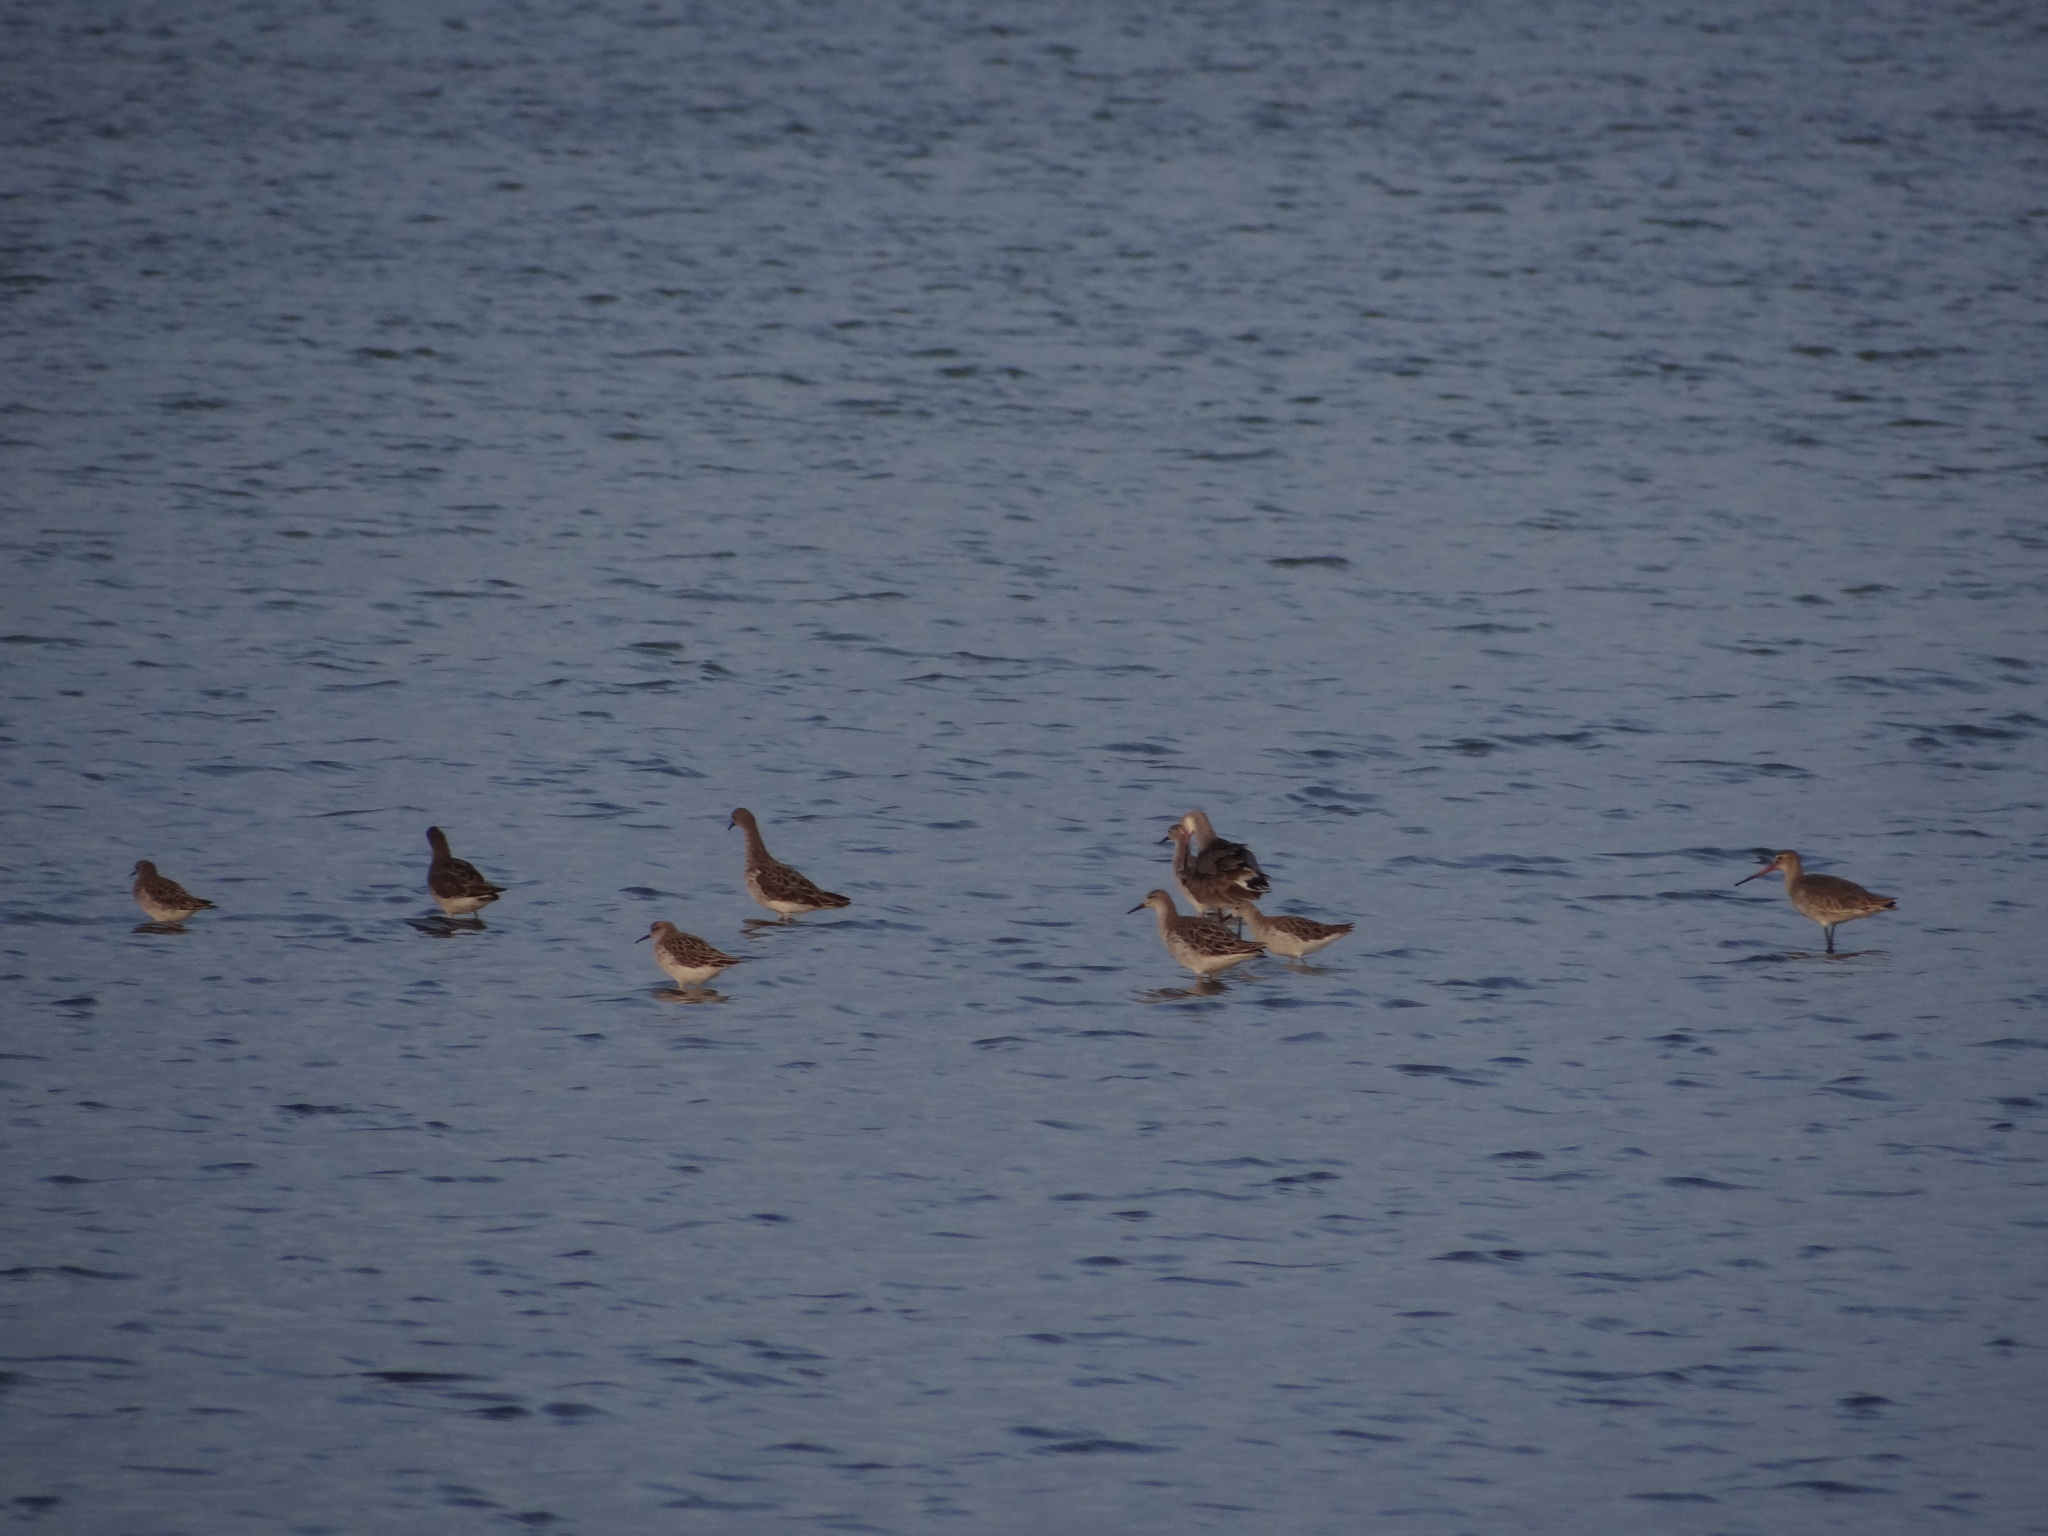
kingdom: Animalia
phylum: Chordata
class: Aves
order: Charadriiformes
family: Scolopacidae
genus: Calidris
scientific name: Calidris pugnax
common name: Ruff
